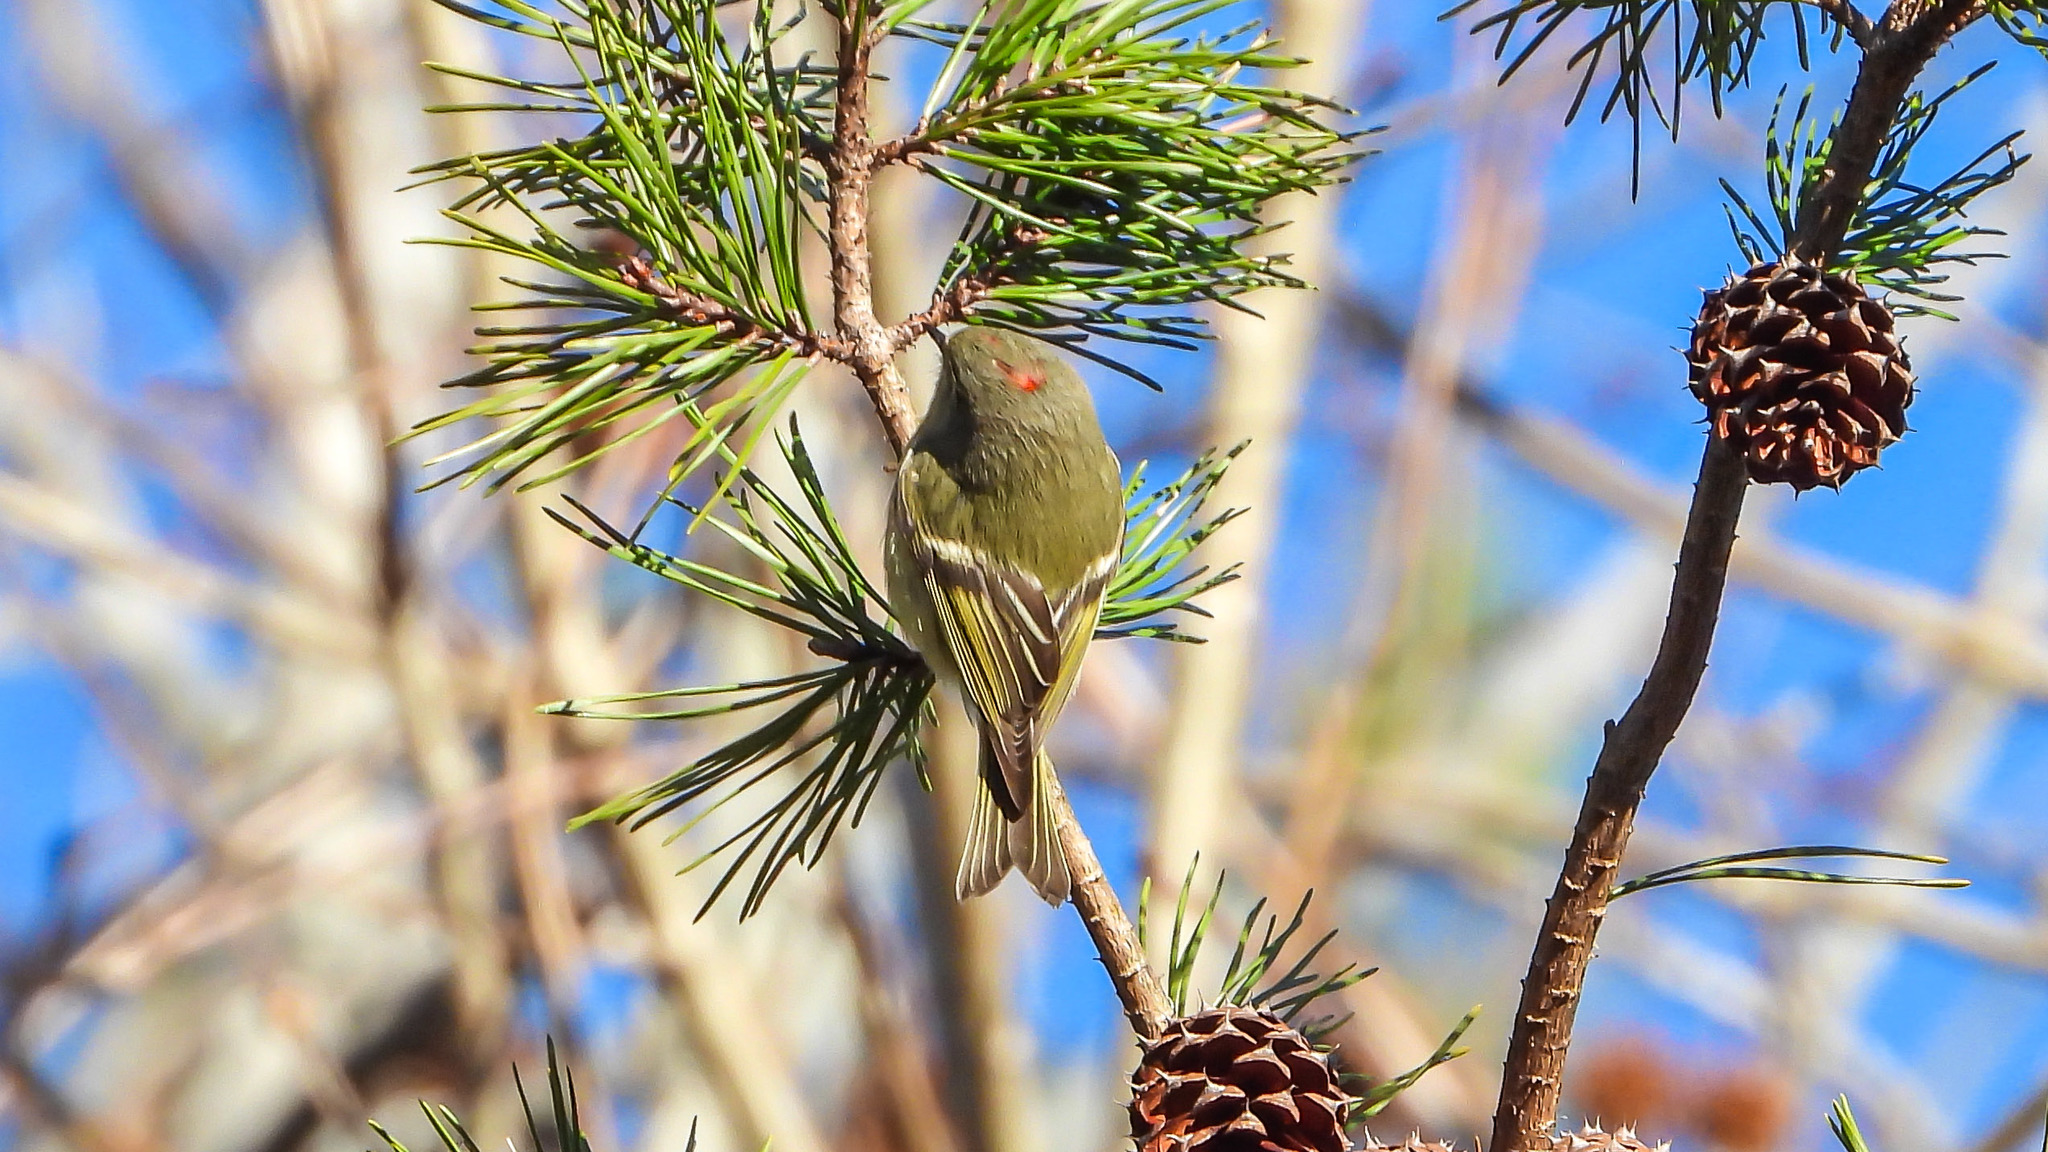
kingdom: Animalia
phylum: Chordata
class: Aves
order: Passeriformes
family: Regulidae
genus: Regulus
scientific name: Regulus calendula
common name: Ruby-crowned kinglet
